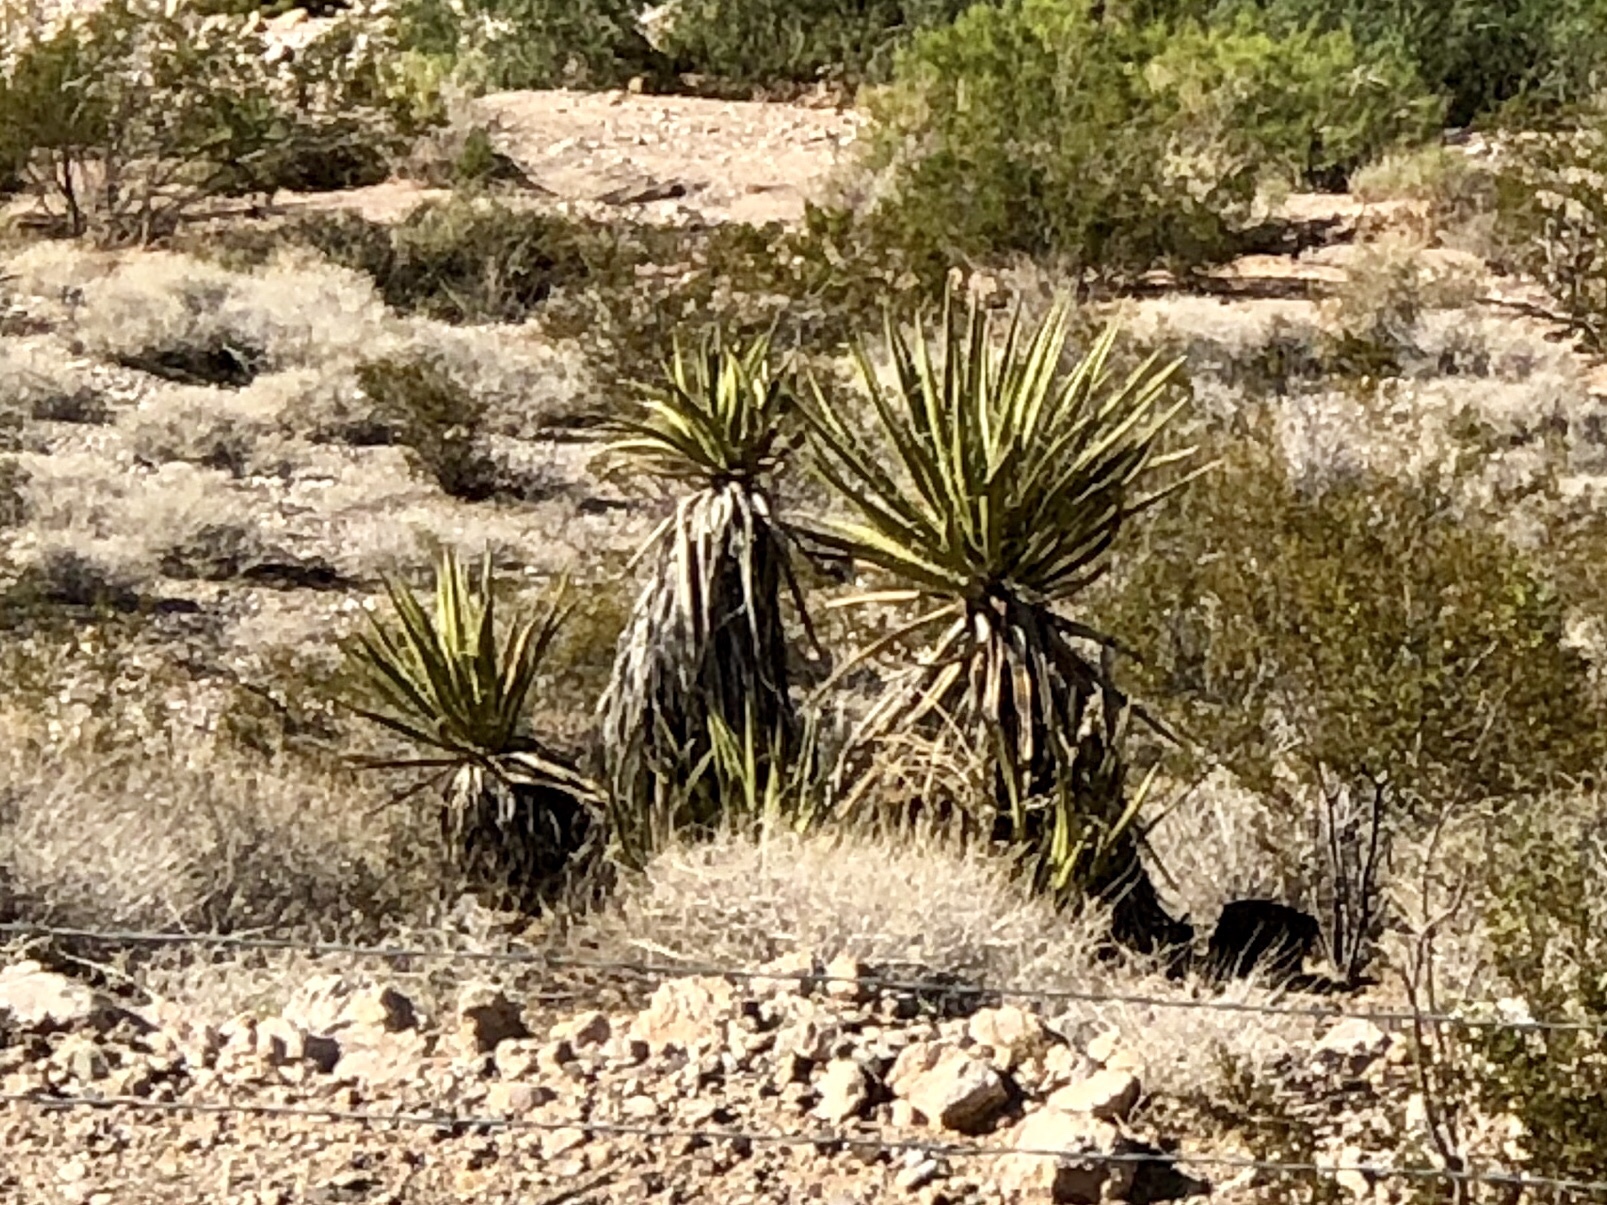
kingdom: Plantae
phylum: Tracheophyta
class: Liliopsida
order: Asparagales
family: Asparagaceae
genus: Yucca
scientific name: Yucca schidigera
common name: Mojave yucca
